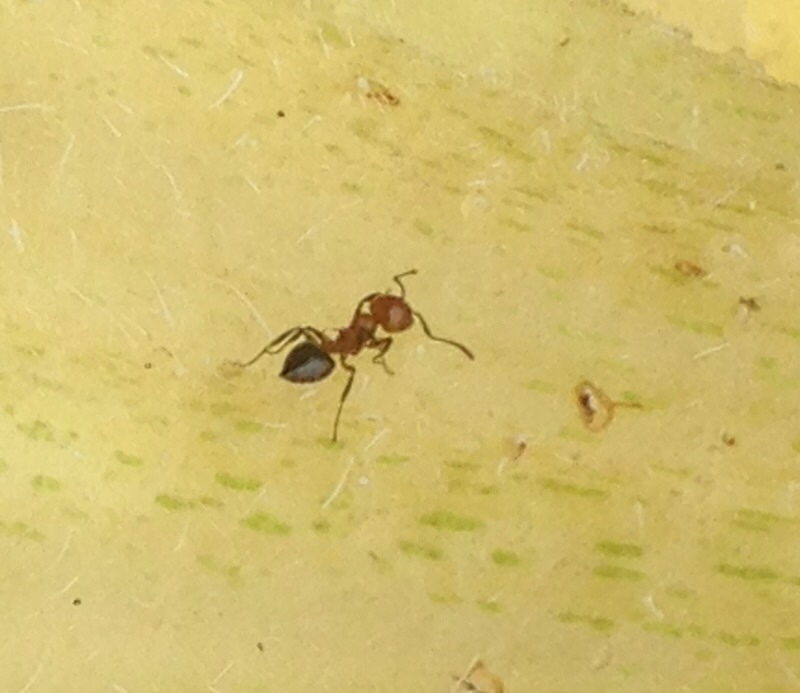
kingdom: Animalia
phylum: Arthropoda
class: Insecta
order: Hymenoptera
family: Formicidae
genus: Crematogaster
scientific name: Crematogaster laeviuscula
